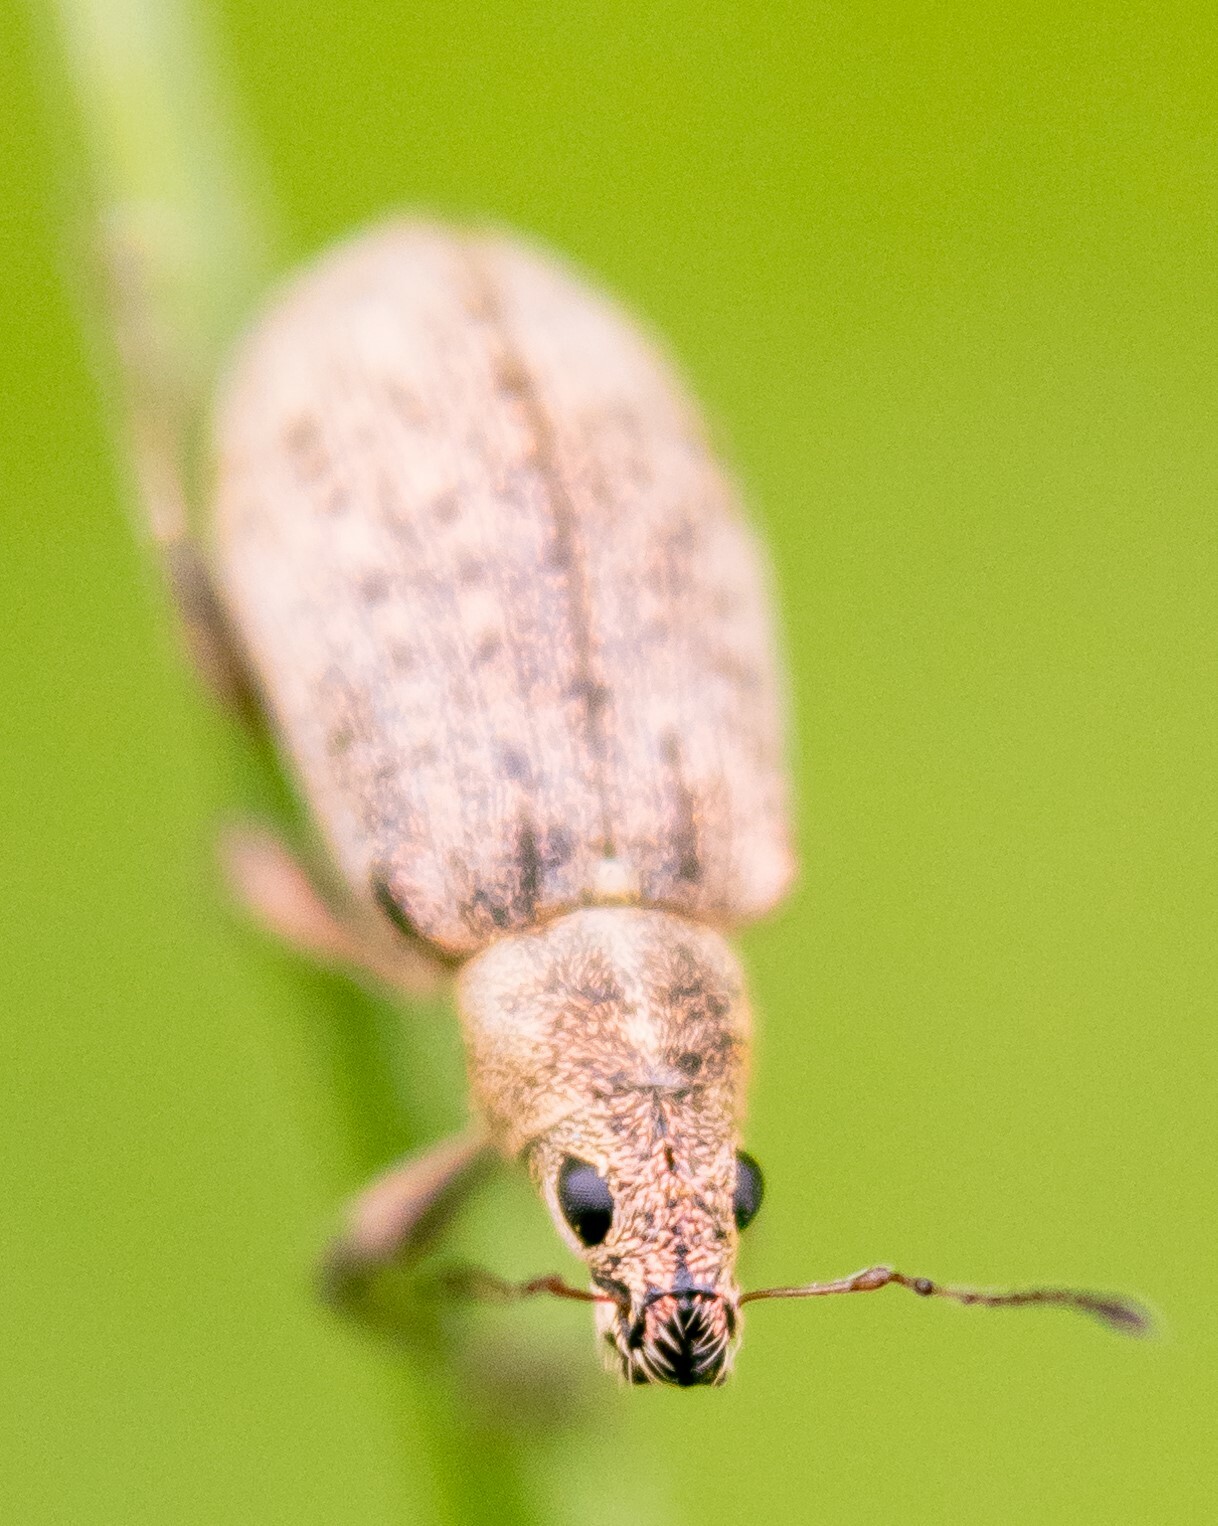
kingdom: Animalia
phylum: Arthropoda
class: Insecta
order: Coleoptera
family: Curculionidae
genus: Polydrusus
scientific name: Polydrusus cervinus
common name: Weevil
